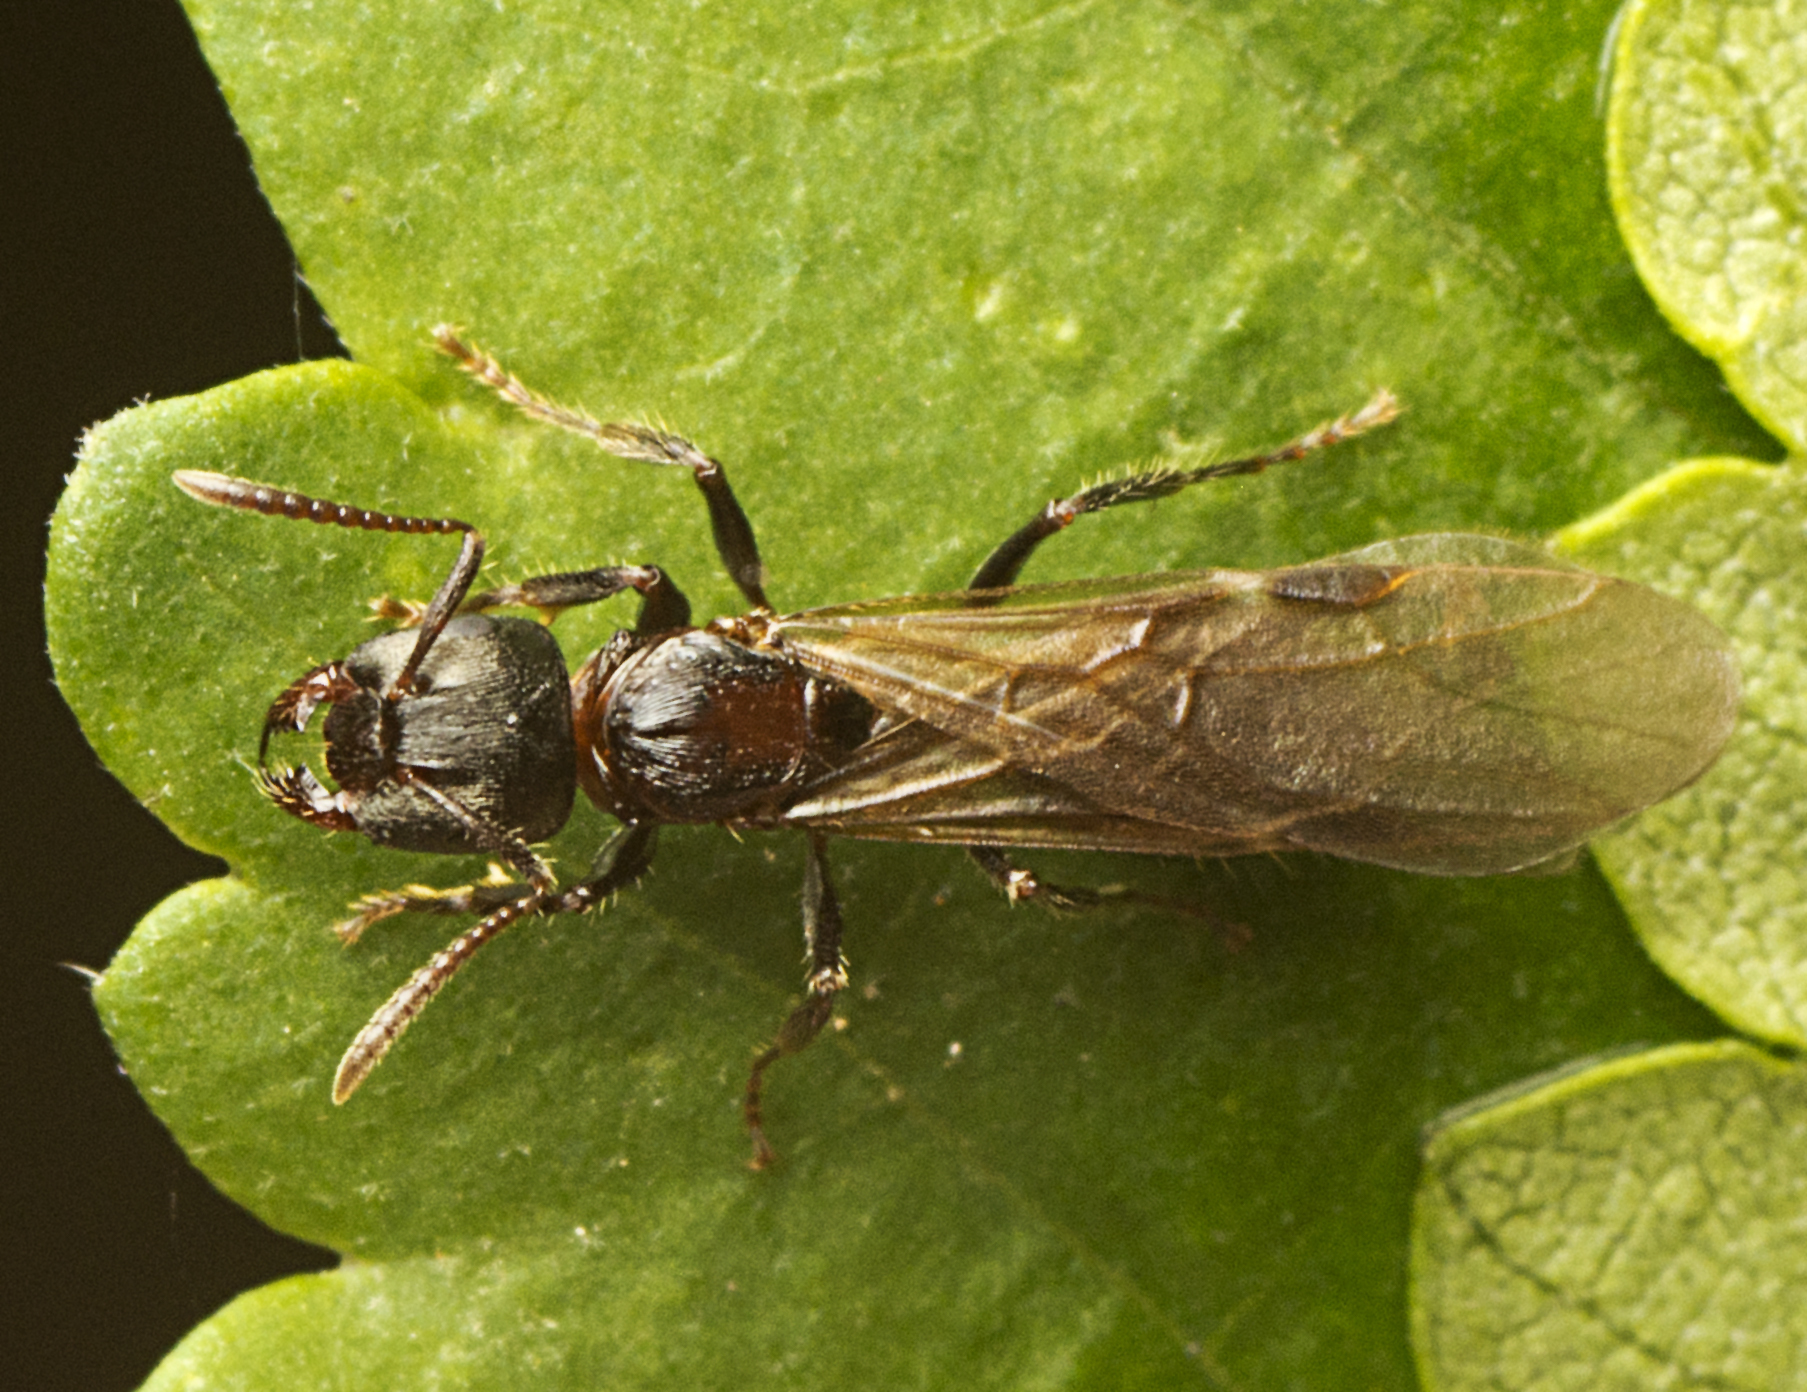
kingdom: Animalia
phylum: Arthropoda
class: Insecta
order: Hymenoptera
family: Formicidae
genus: Notoncus
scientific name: Notoncus capitatus
